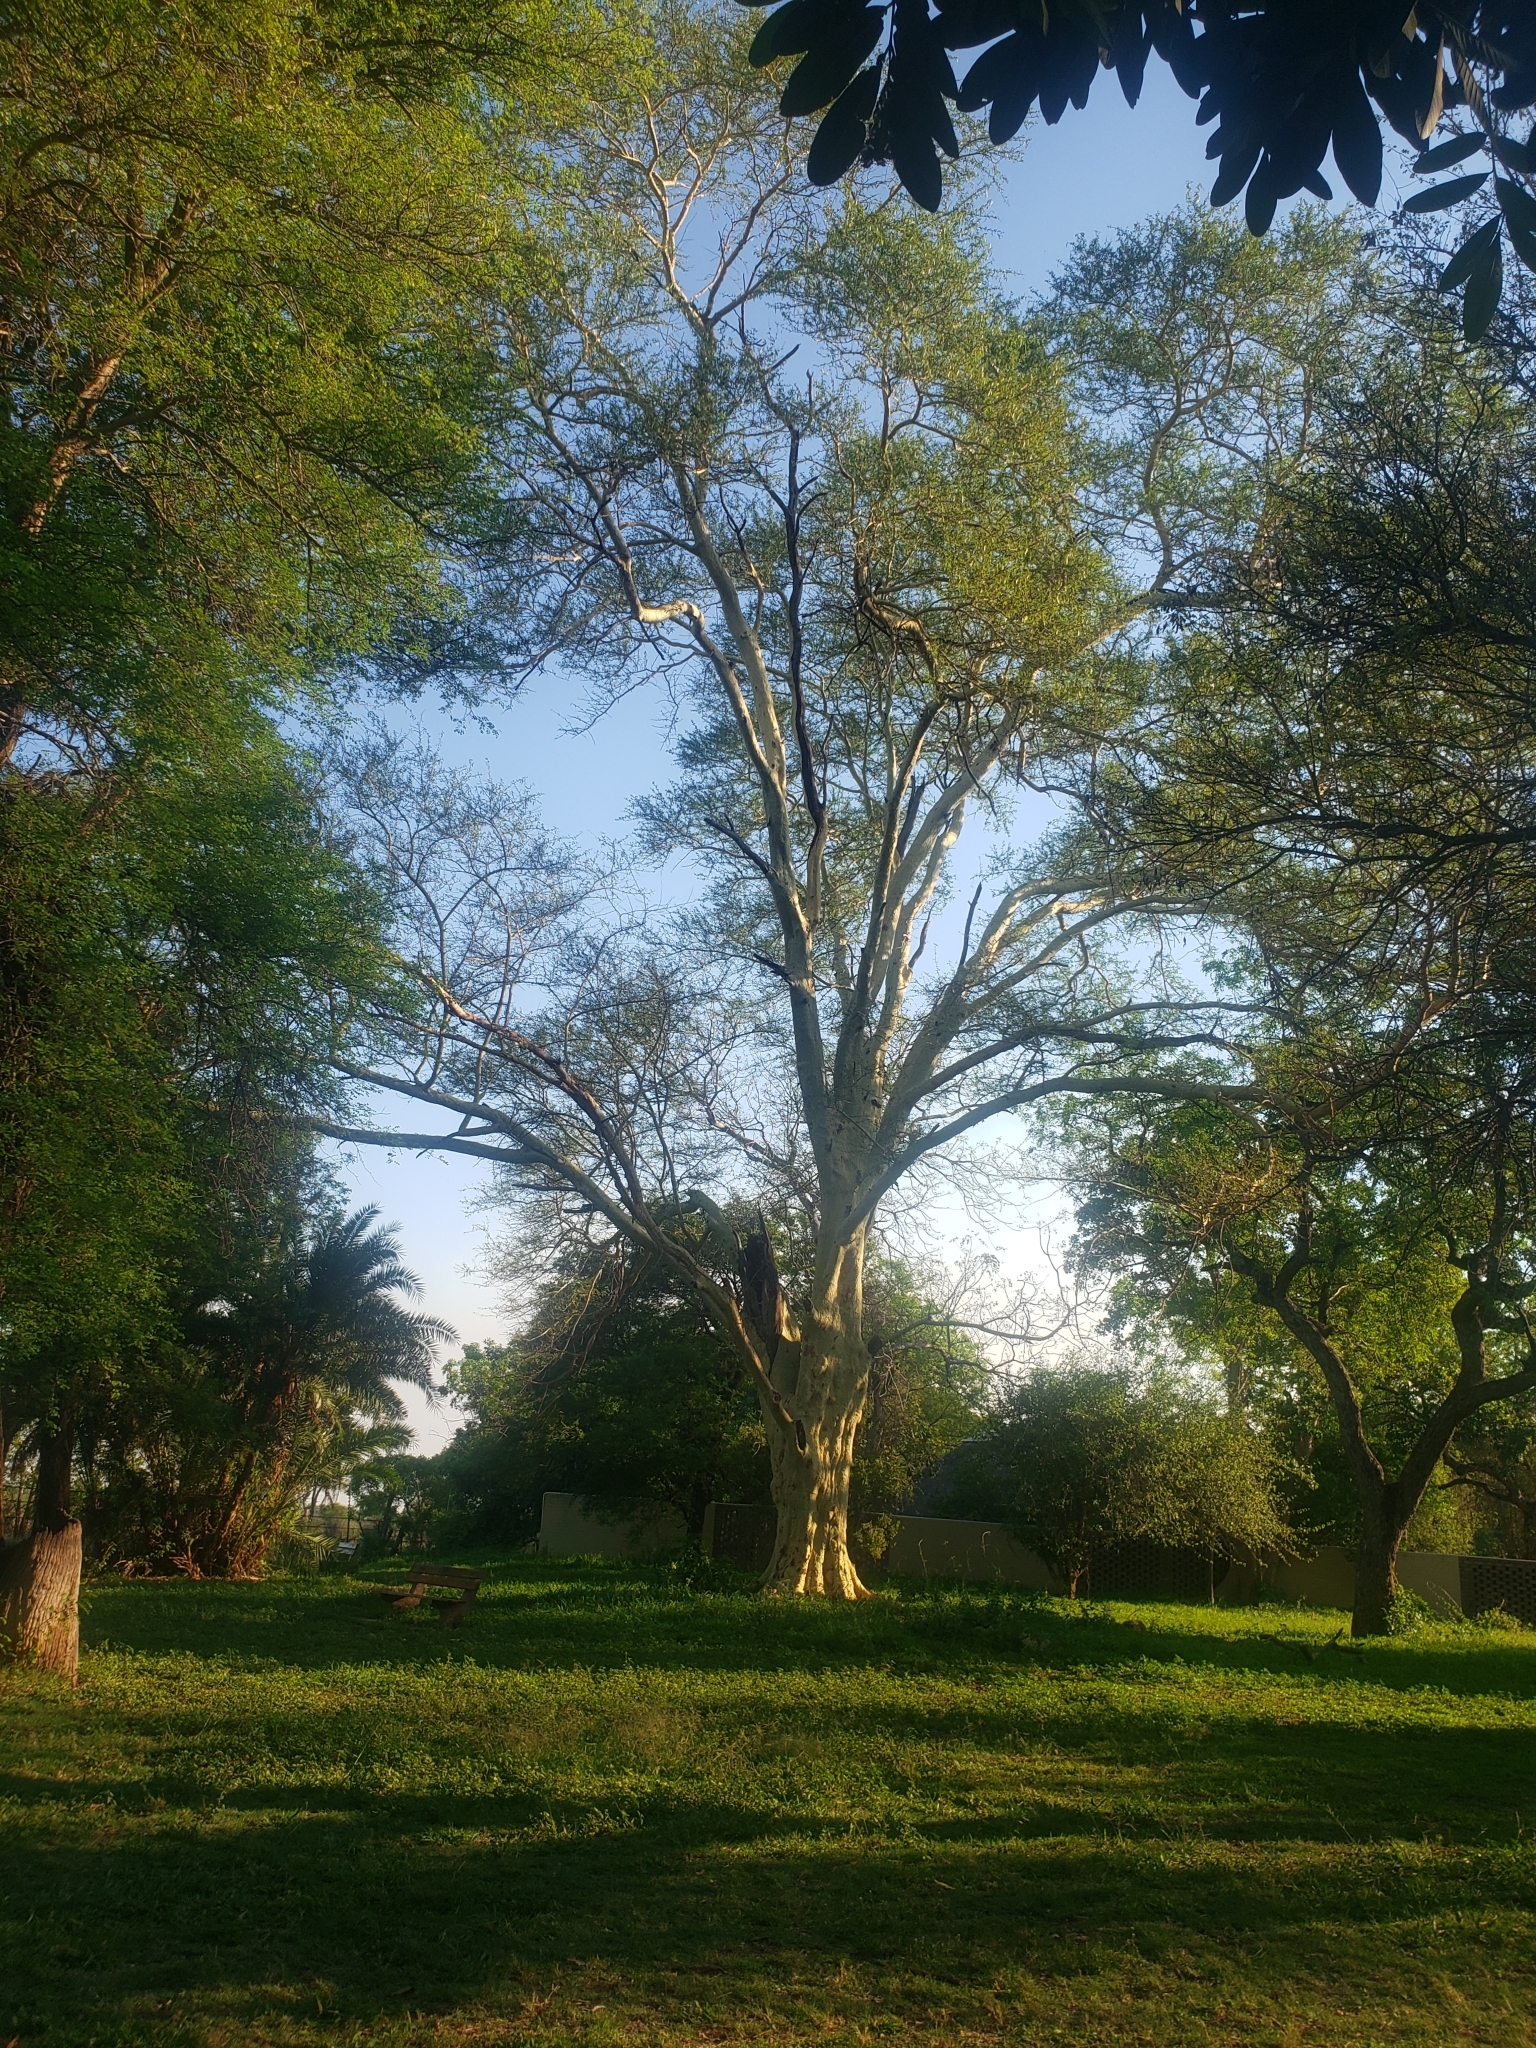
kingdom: Plantae
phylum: Tracheophyta
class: Magnoliopsida
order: Fabales
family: Fabaceae
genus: Vachellia
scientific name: Vachellia xanthophloea
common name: Fever tree
